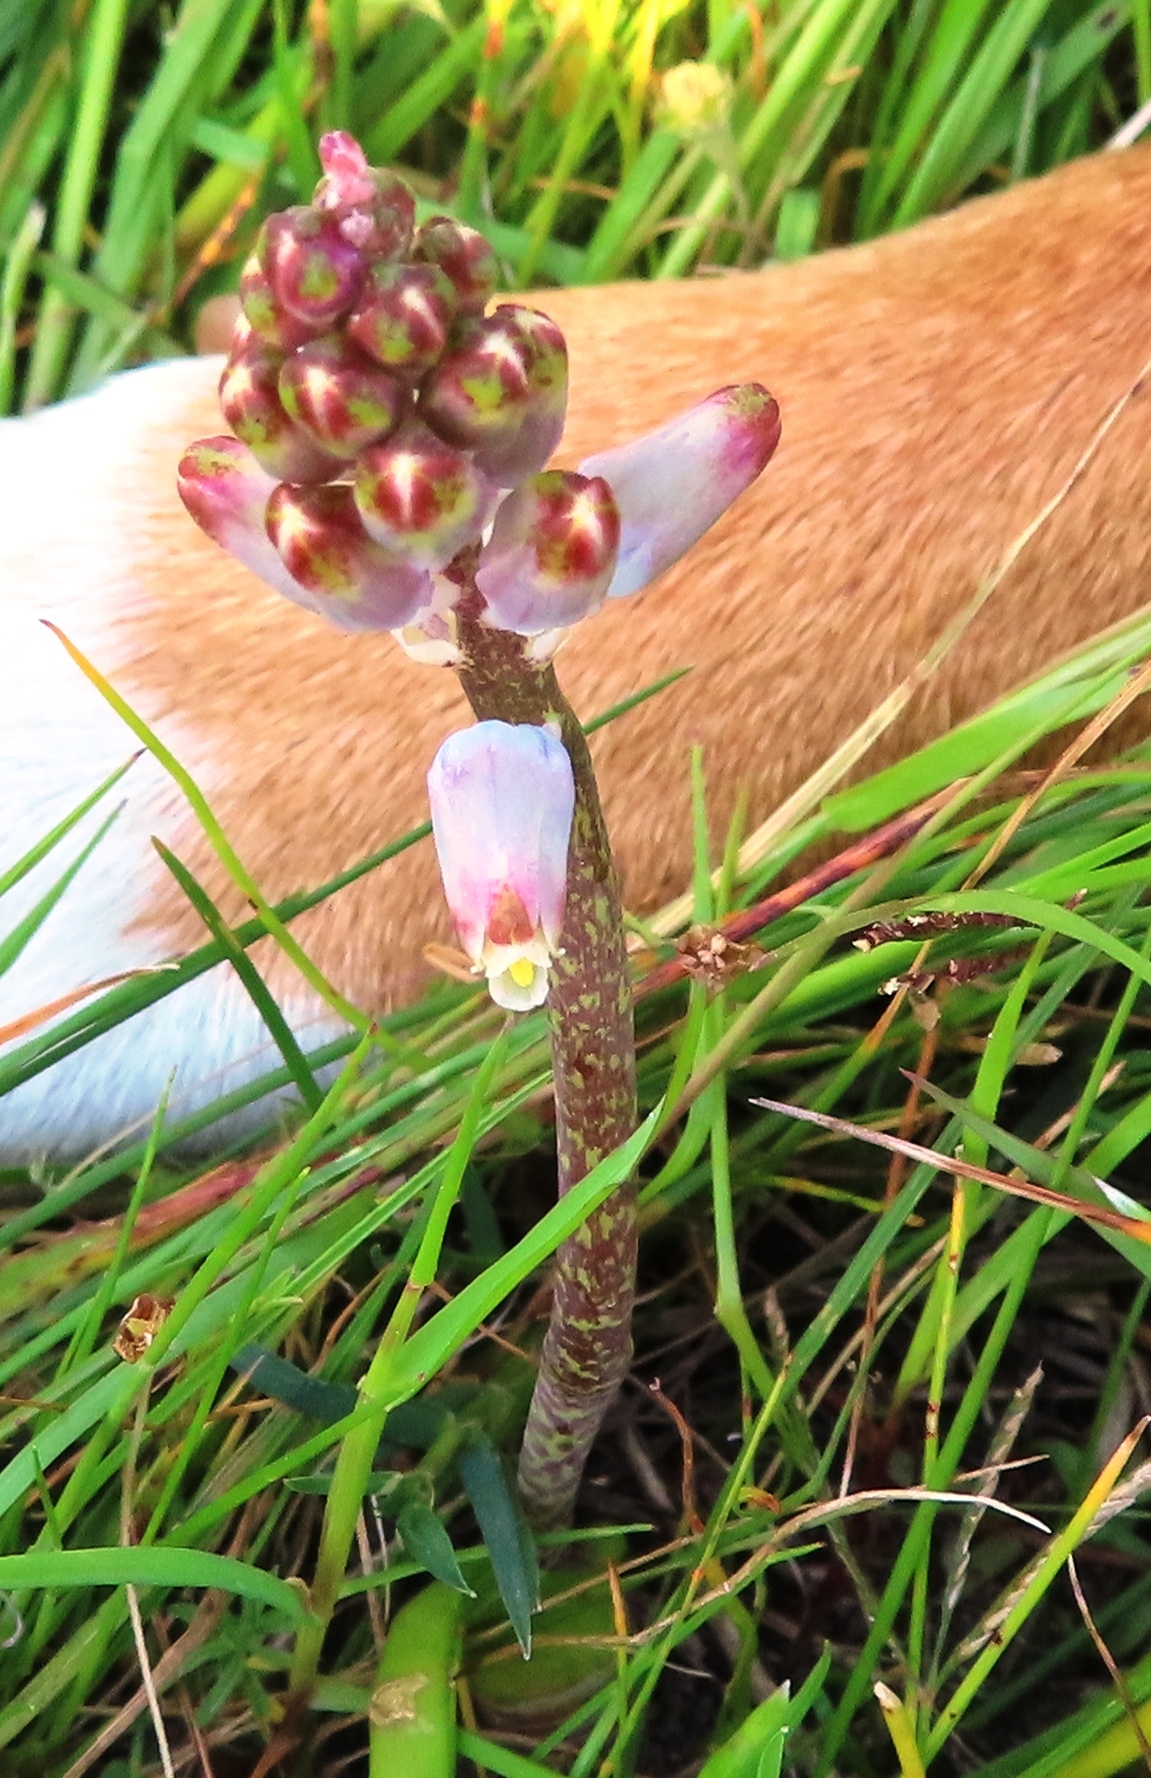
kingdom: Plantae
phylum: Tracheophyta
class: Liliopsida
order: Asparagales
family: Asparagaceae
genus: Lachenalia
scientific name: Lachenalia unifolia
